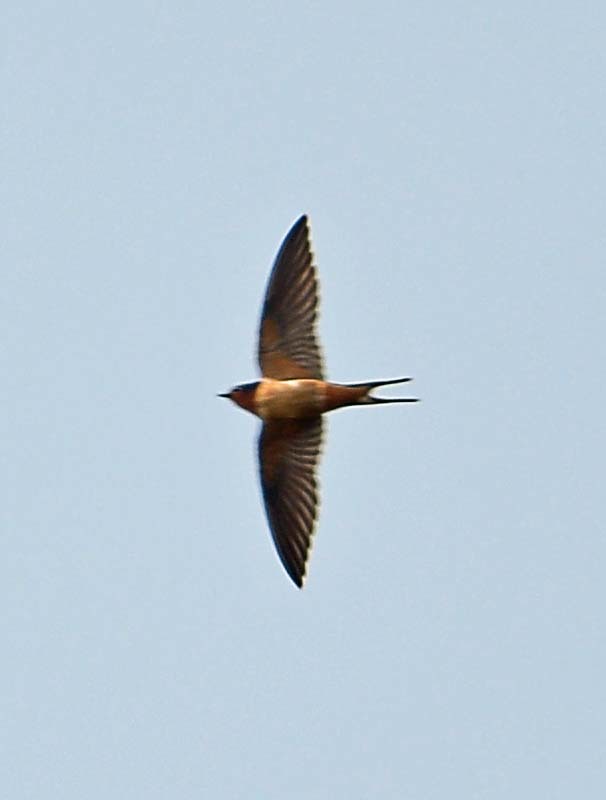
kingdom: Animalia
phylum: Chordata
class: Aves
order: Passeriformes
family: Hirundinidae
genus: Hirundo
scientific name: Hirundo rustica
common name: Barn swallow
